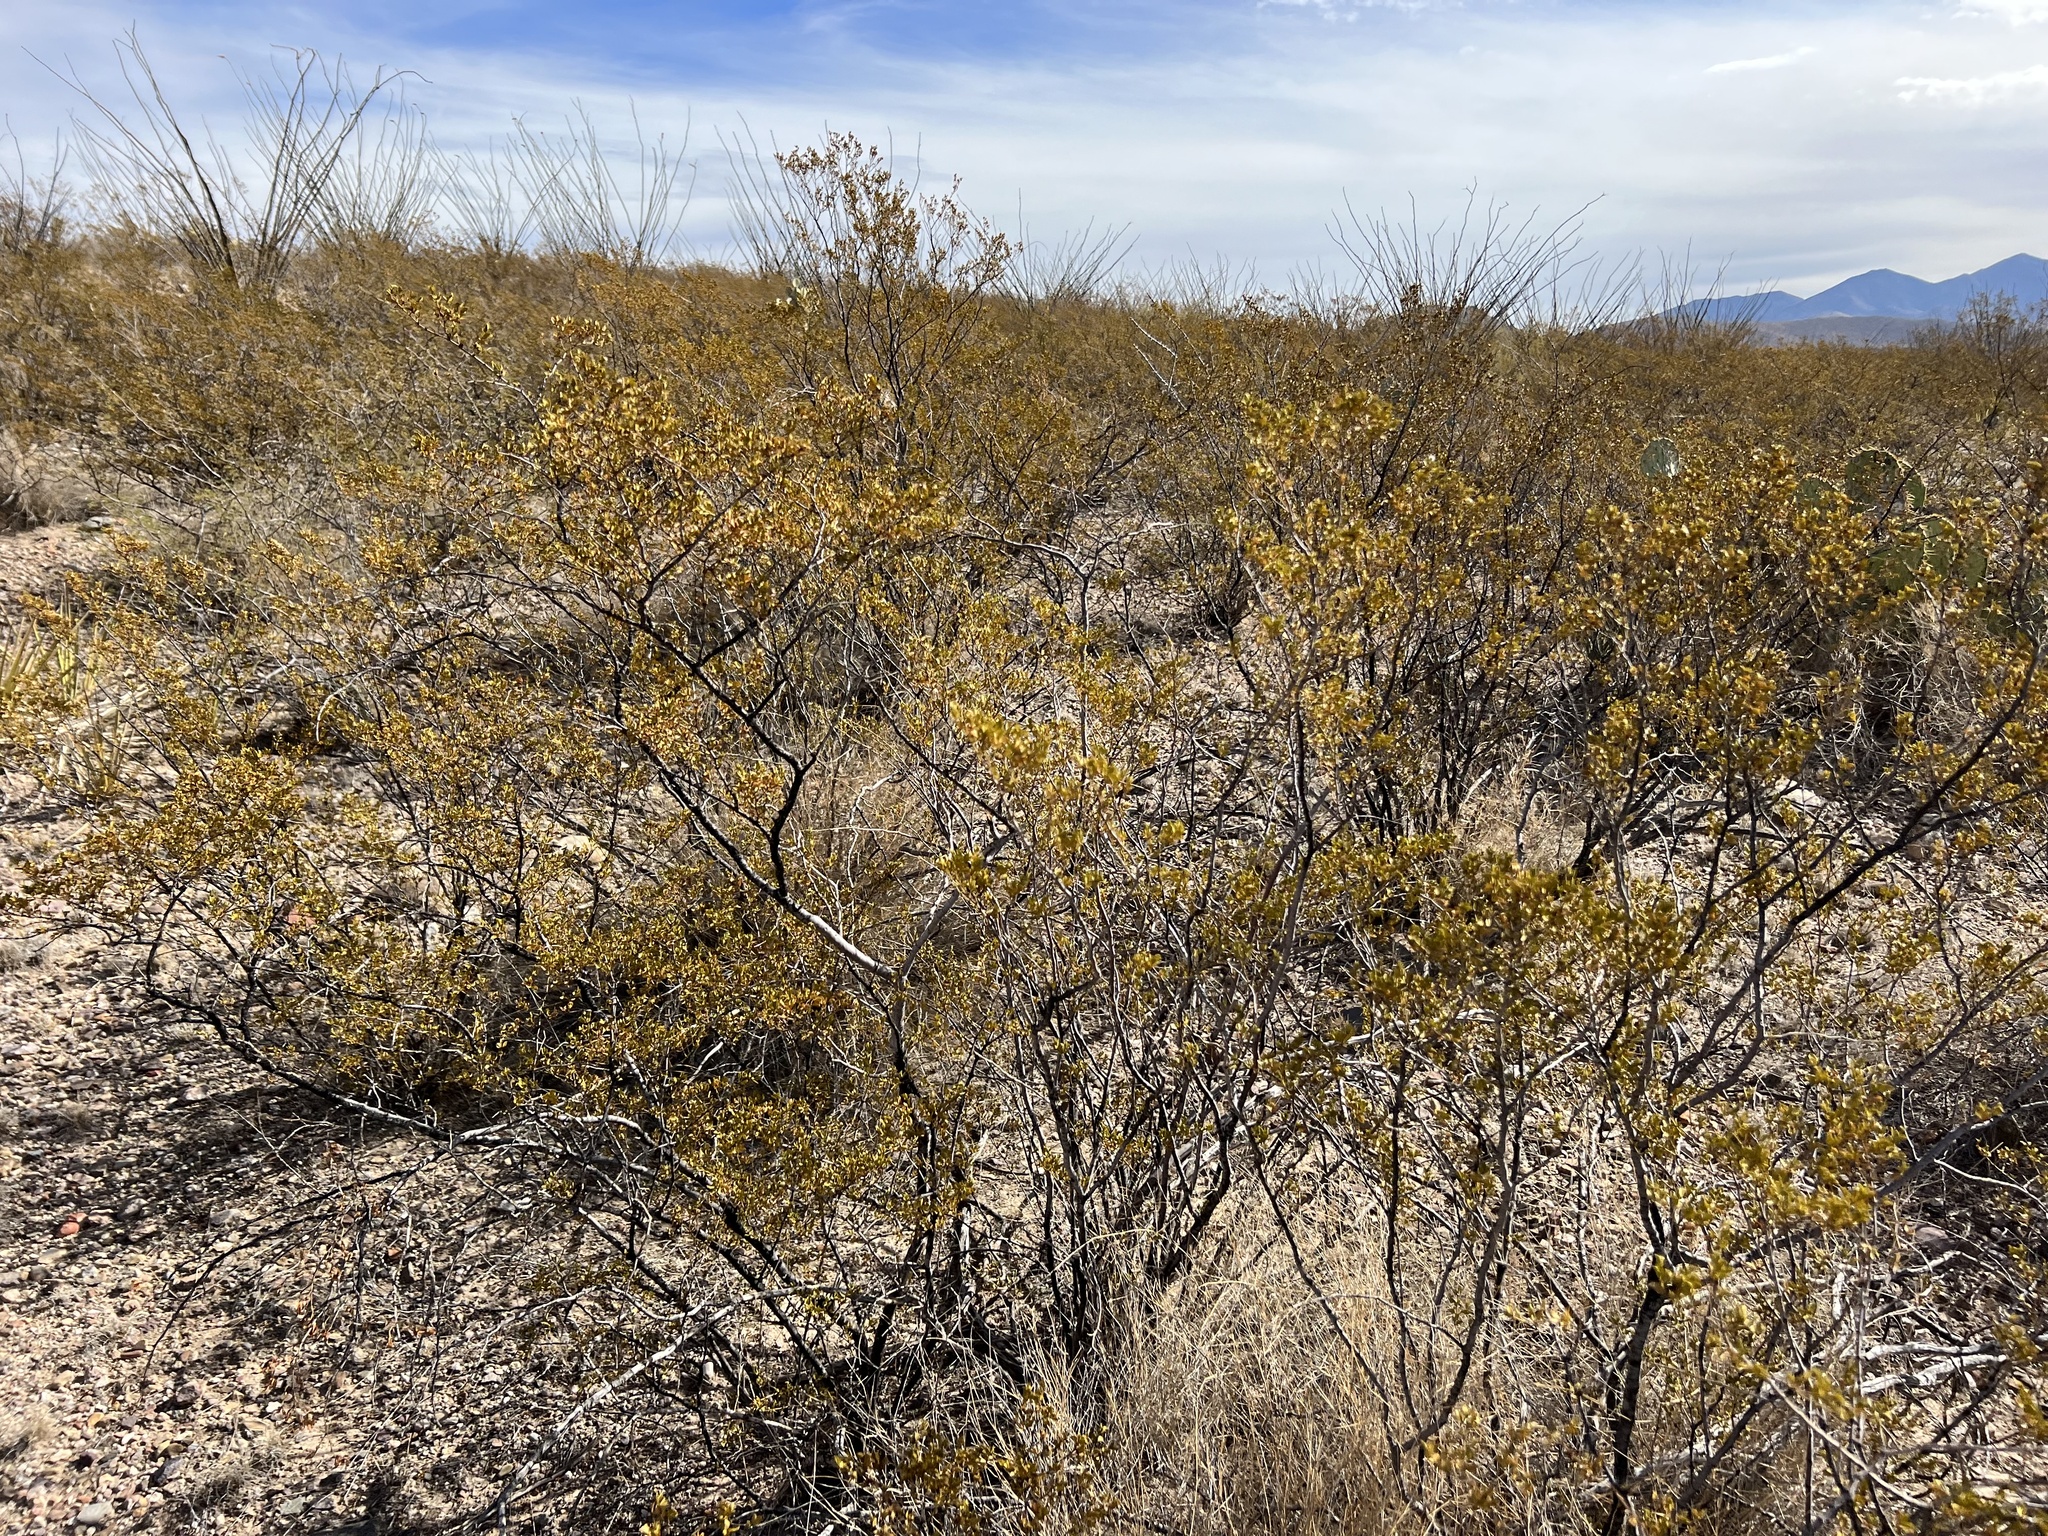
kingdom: Plantae
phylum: Tracheophyta
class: Magnoliopsida
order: Zygophyllales
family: Zygophyllaceae
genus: Larrea
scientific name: Larrea tridentata
